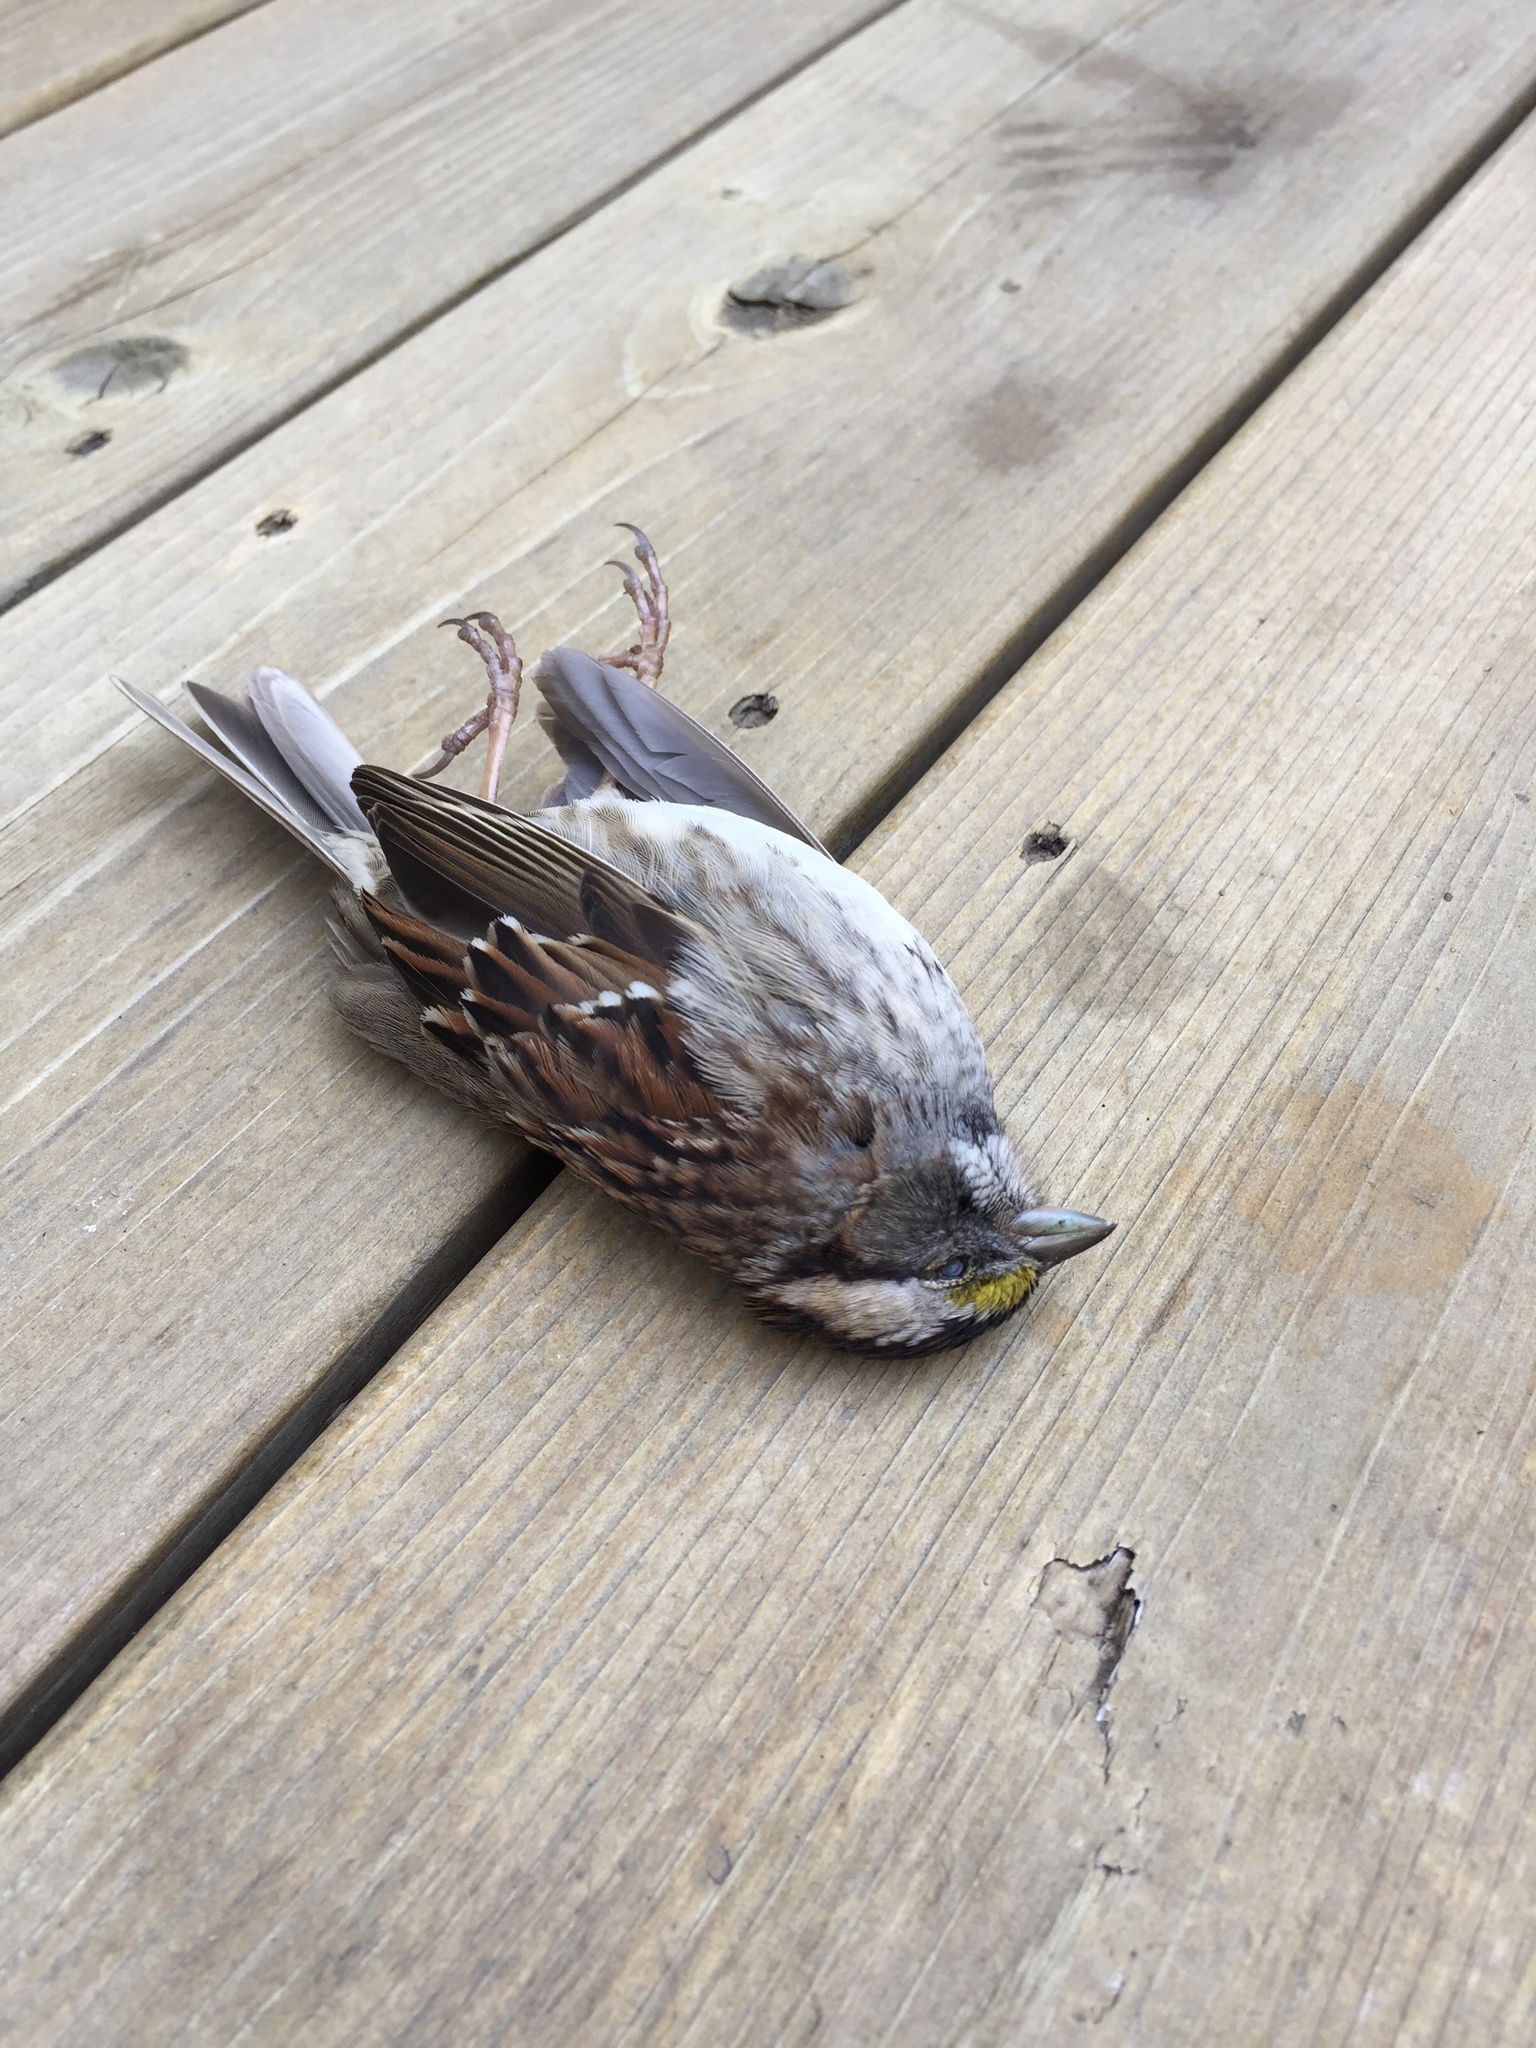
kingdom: Animalia
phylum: Chordata
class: Aves
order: Passeriformes
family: Passerellidae
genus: Zonotrichia
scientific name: Zonotrichia albicollis
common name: White-throated sparrow
